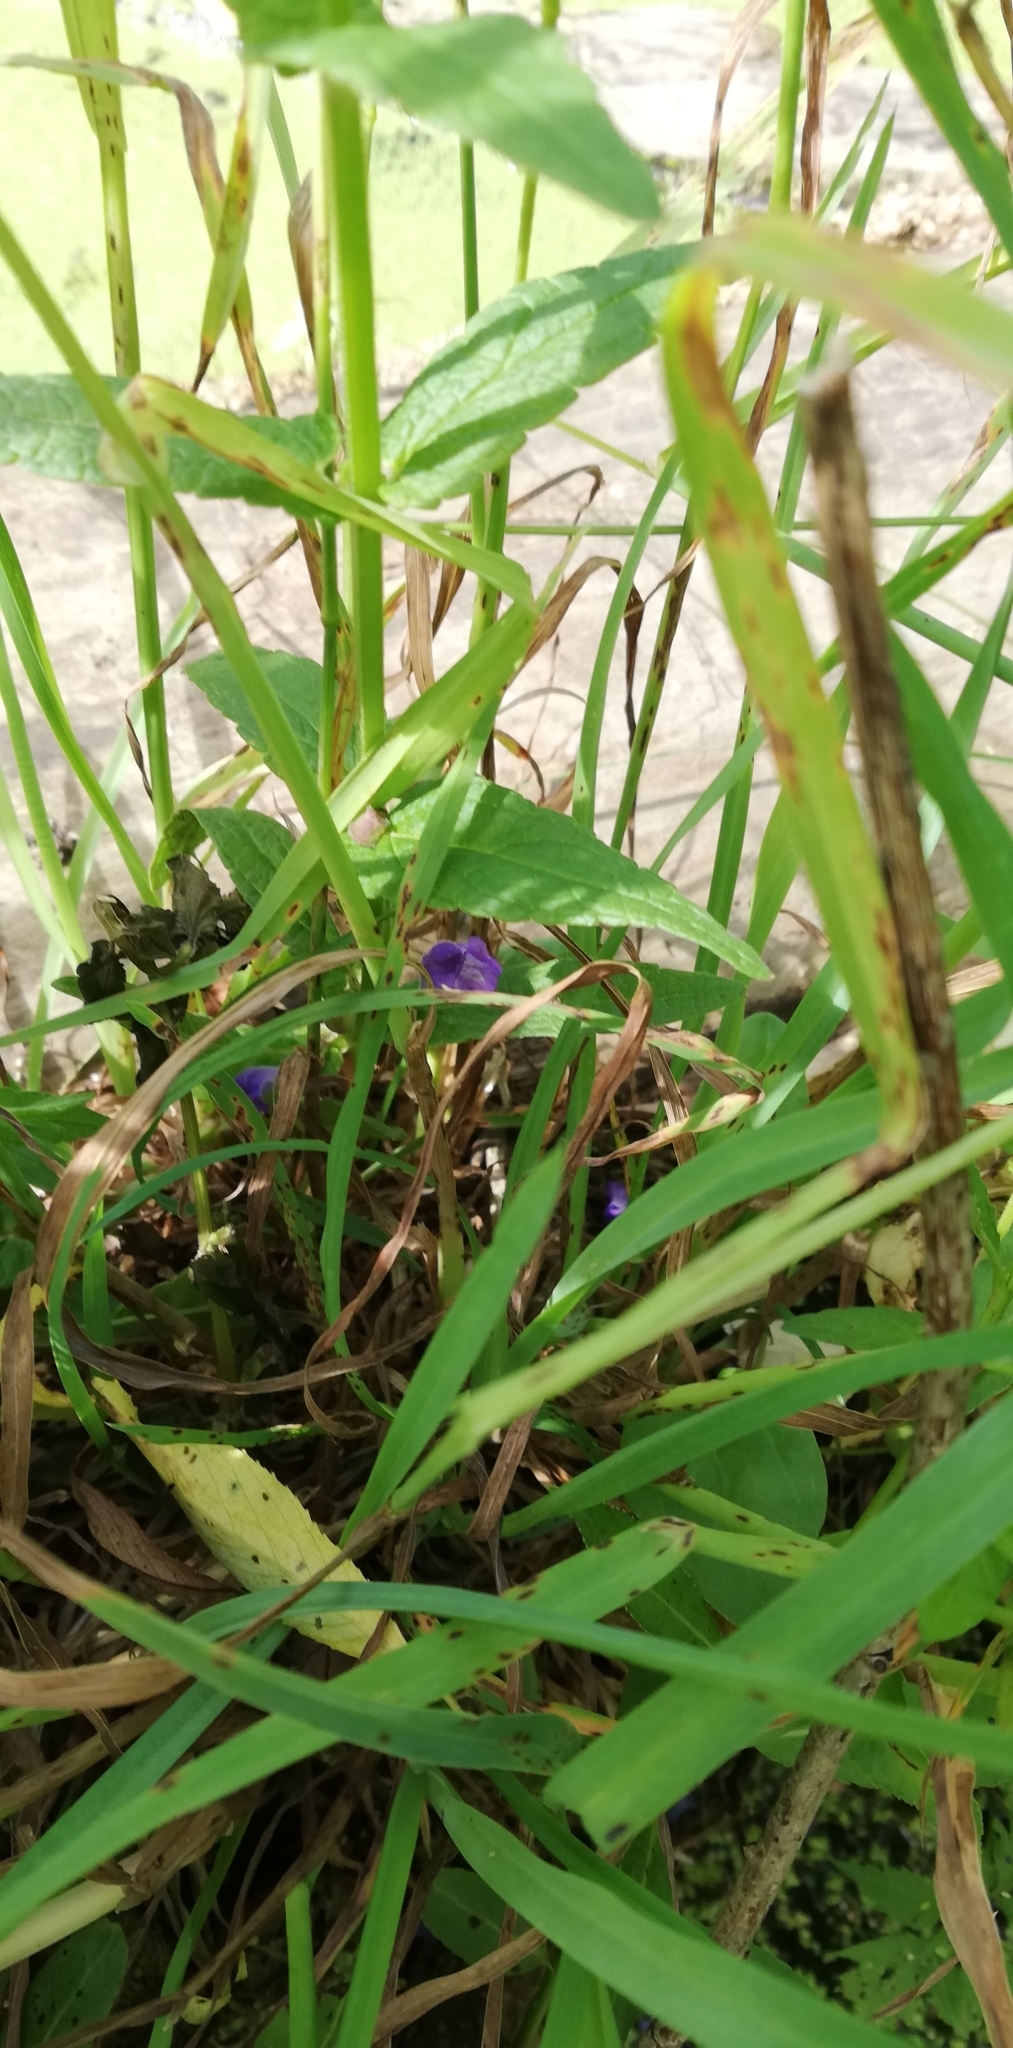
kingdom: Plantae
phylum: Tracheophyta
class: Magnoliopsida
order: Lamiales
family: Lamiaceae
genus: Scutellaria
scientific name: Scutellaria galericulata
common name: Skullcap
